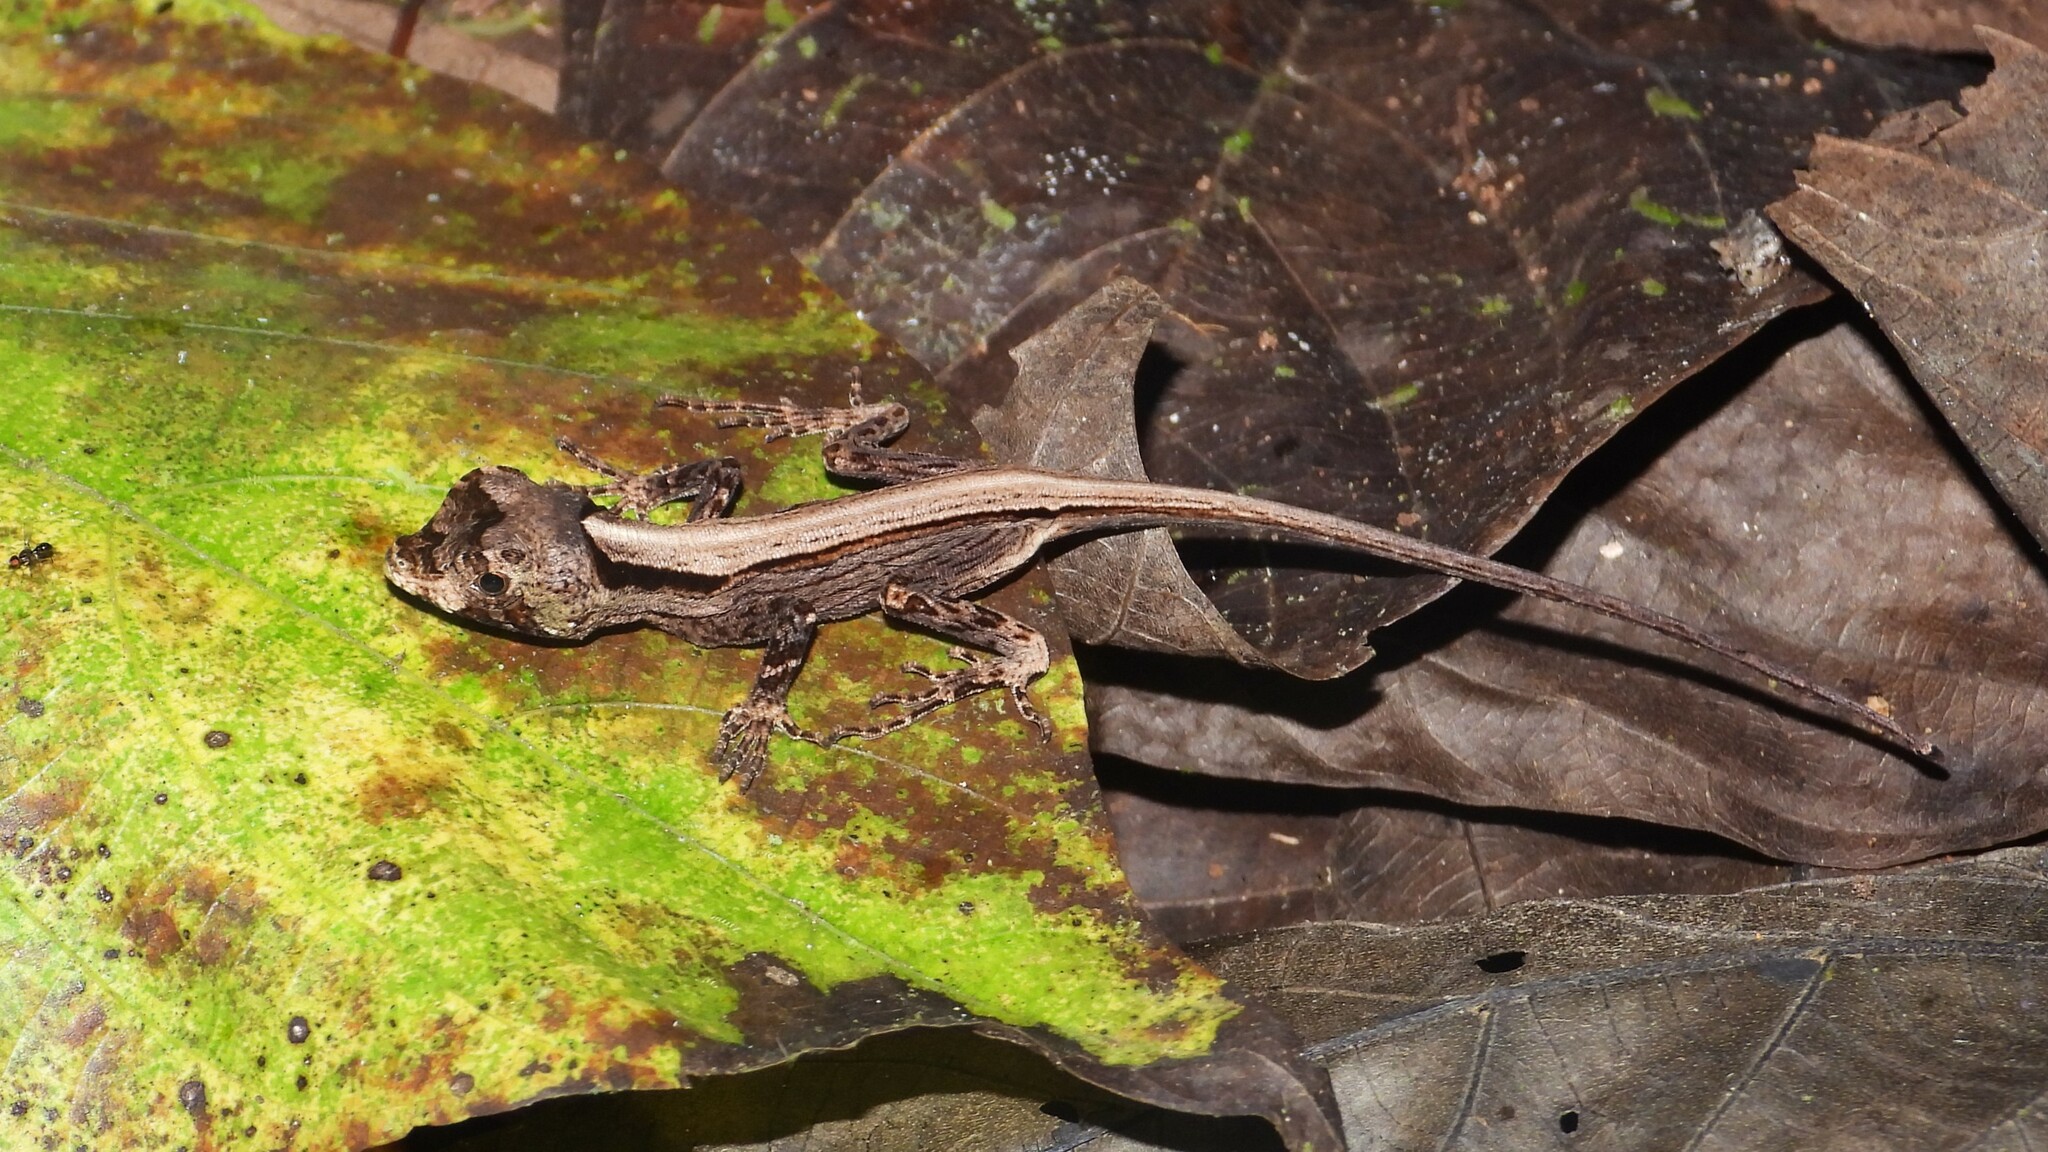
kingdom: Animalia
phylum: Chordata
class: Squamata
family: Dactyloidae
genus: Anolis
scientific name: Anolis capito
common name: Bighead anole
